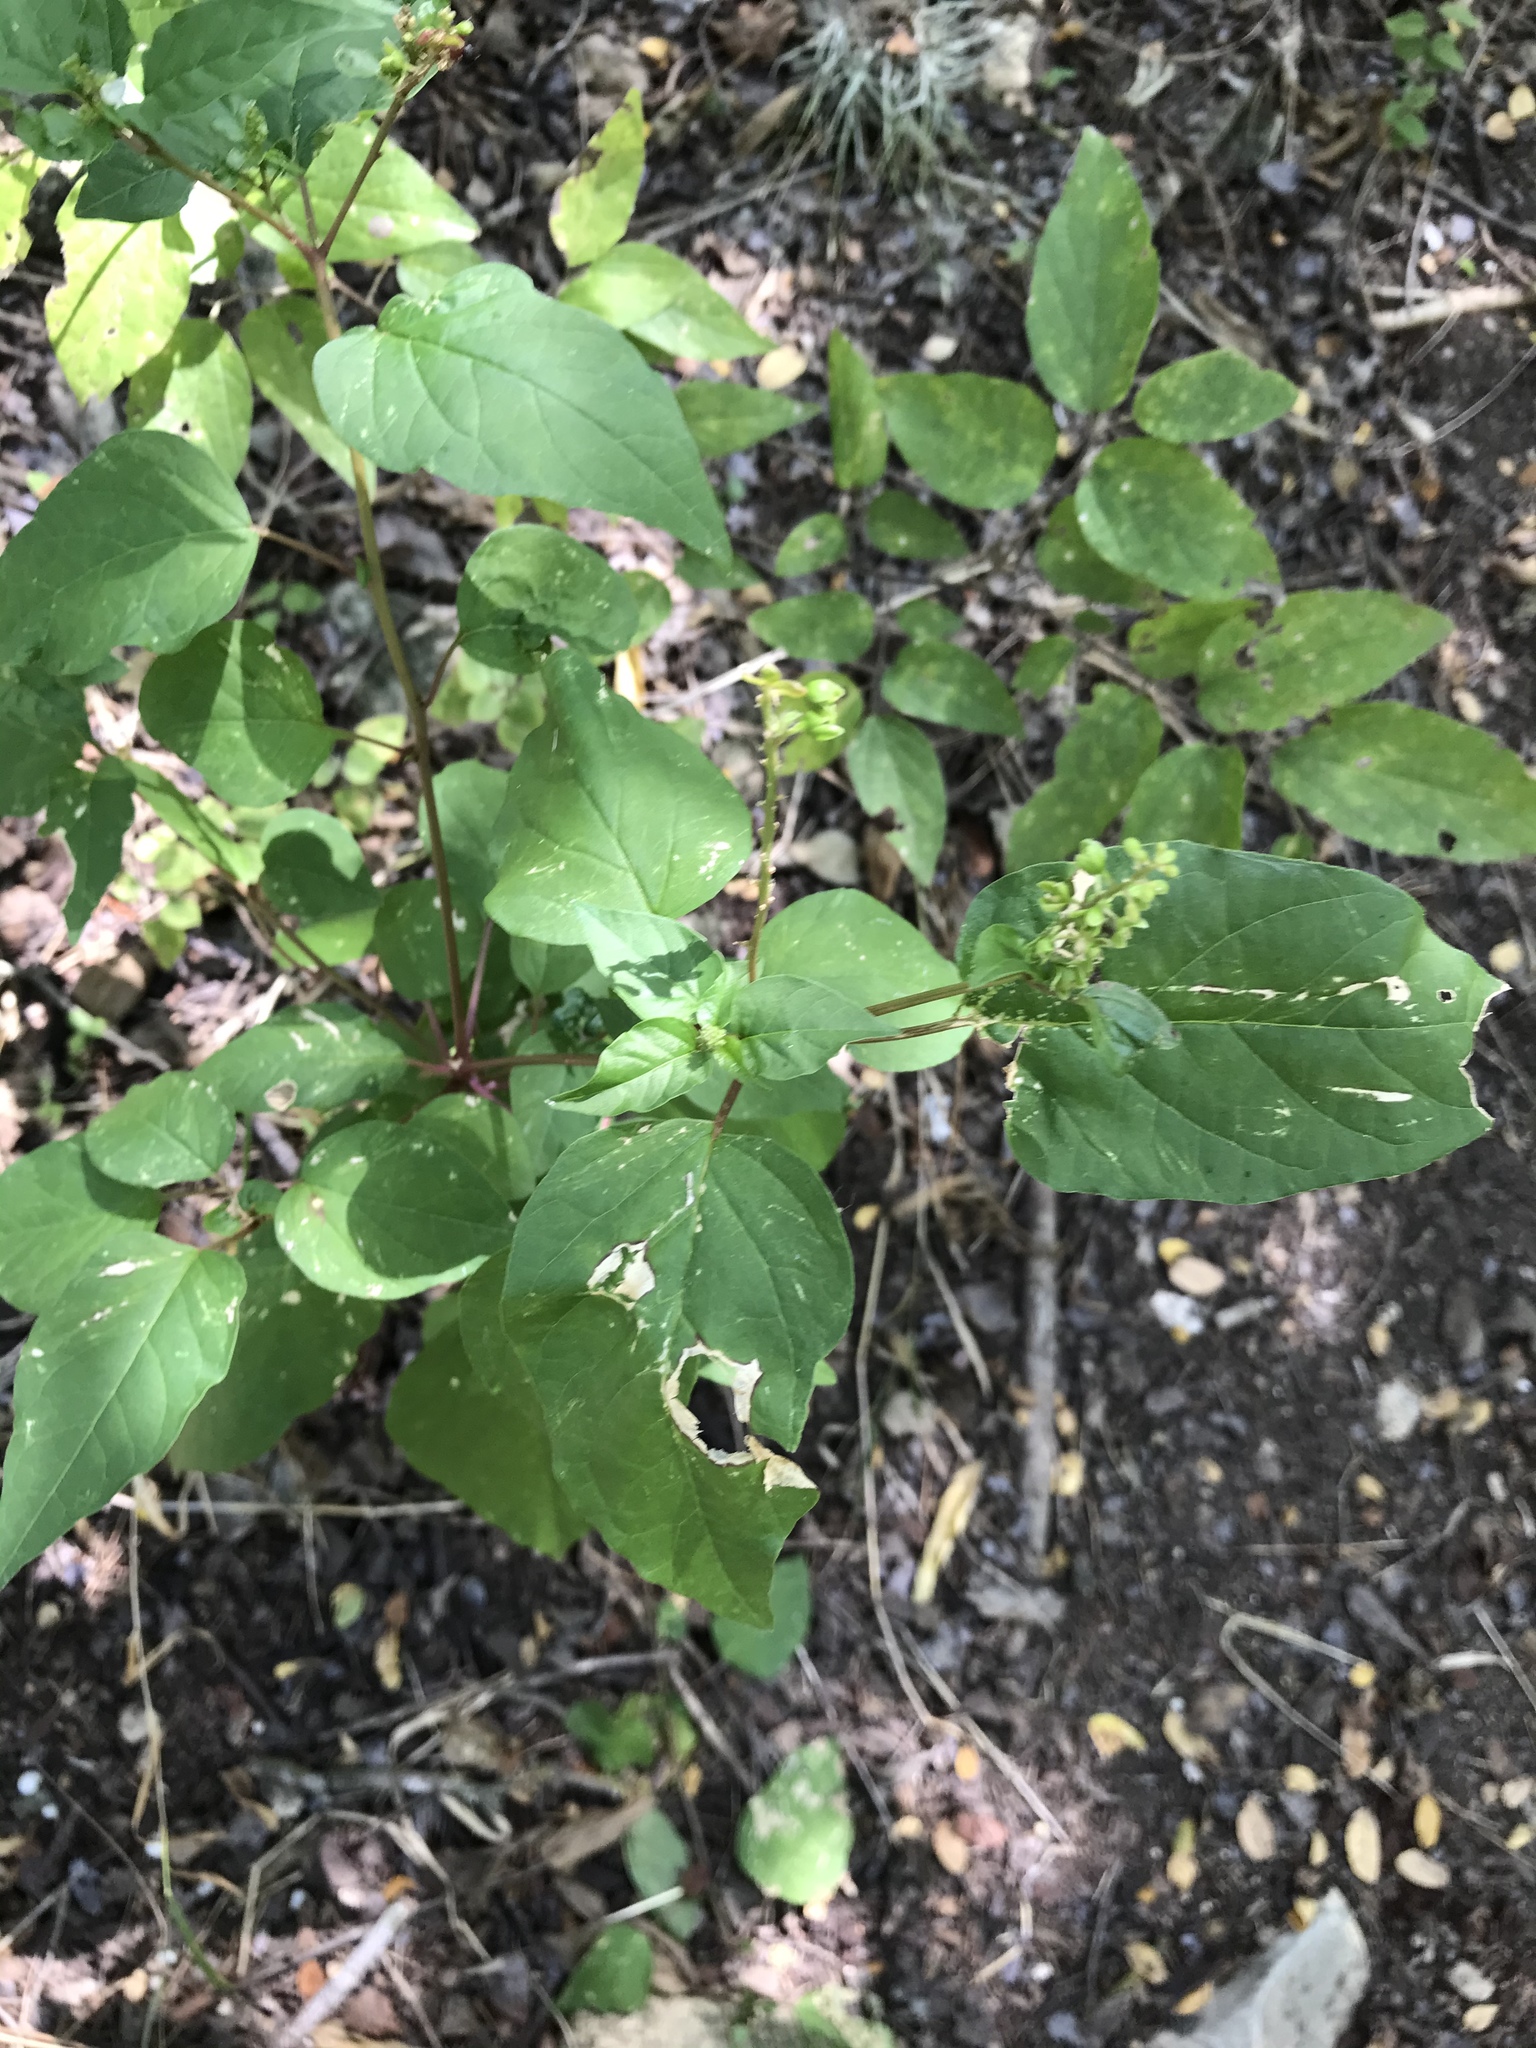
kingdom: Plantae
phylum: Tracheophyta
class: Magnoliopsida
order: Caryophyllales
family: Phytolaccaceae
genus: Rivina
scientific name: Rivina humilis
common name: Rougeplant
